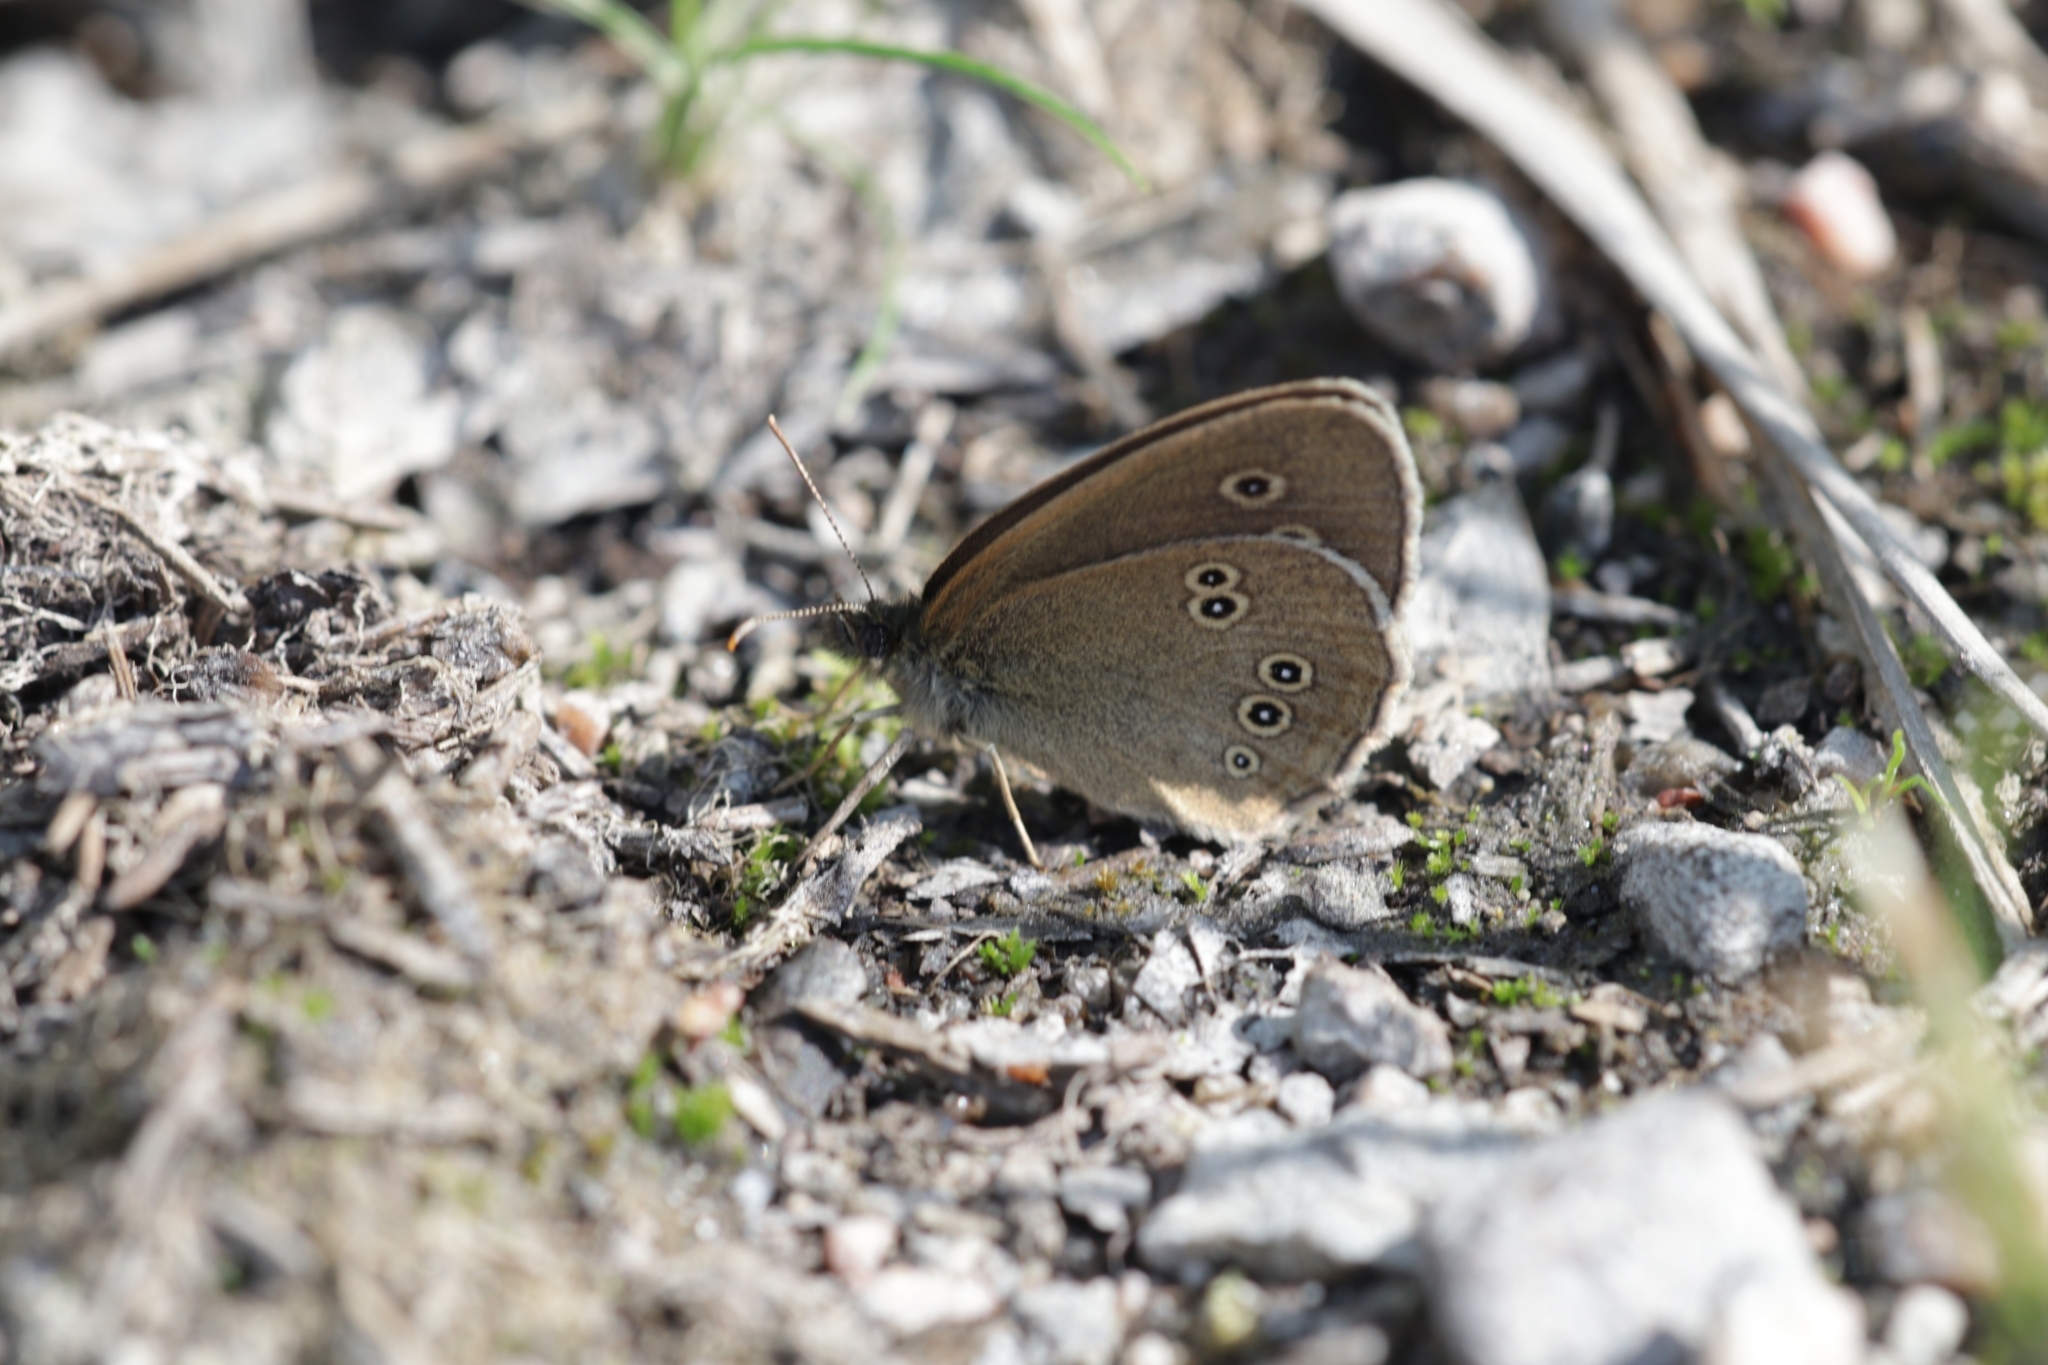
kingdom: Animalia
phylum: Arthropoda
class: Insecta
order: Lepidoptera
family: Nymphalidae
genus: Aphantopus
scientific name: Aphantopus hyperantus
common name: Ringlet
